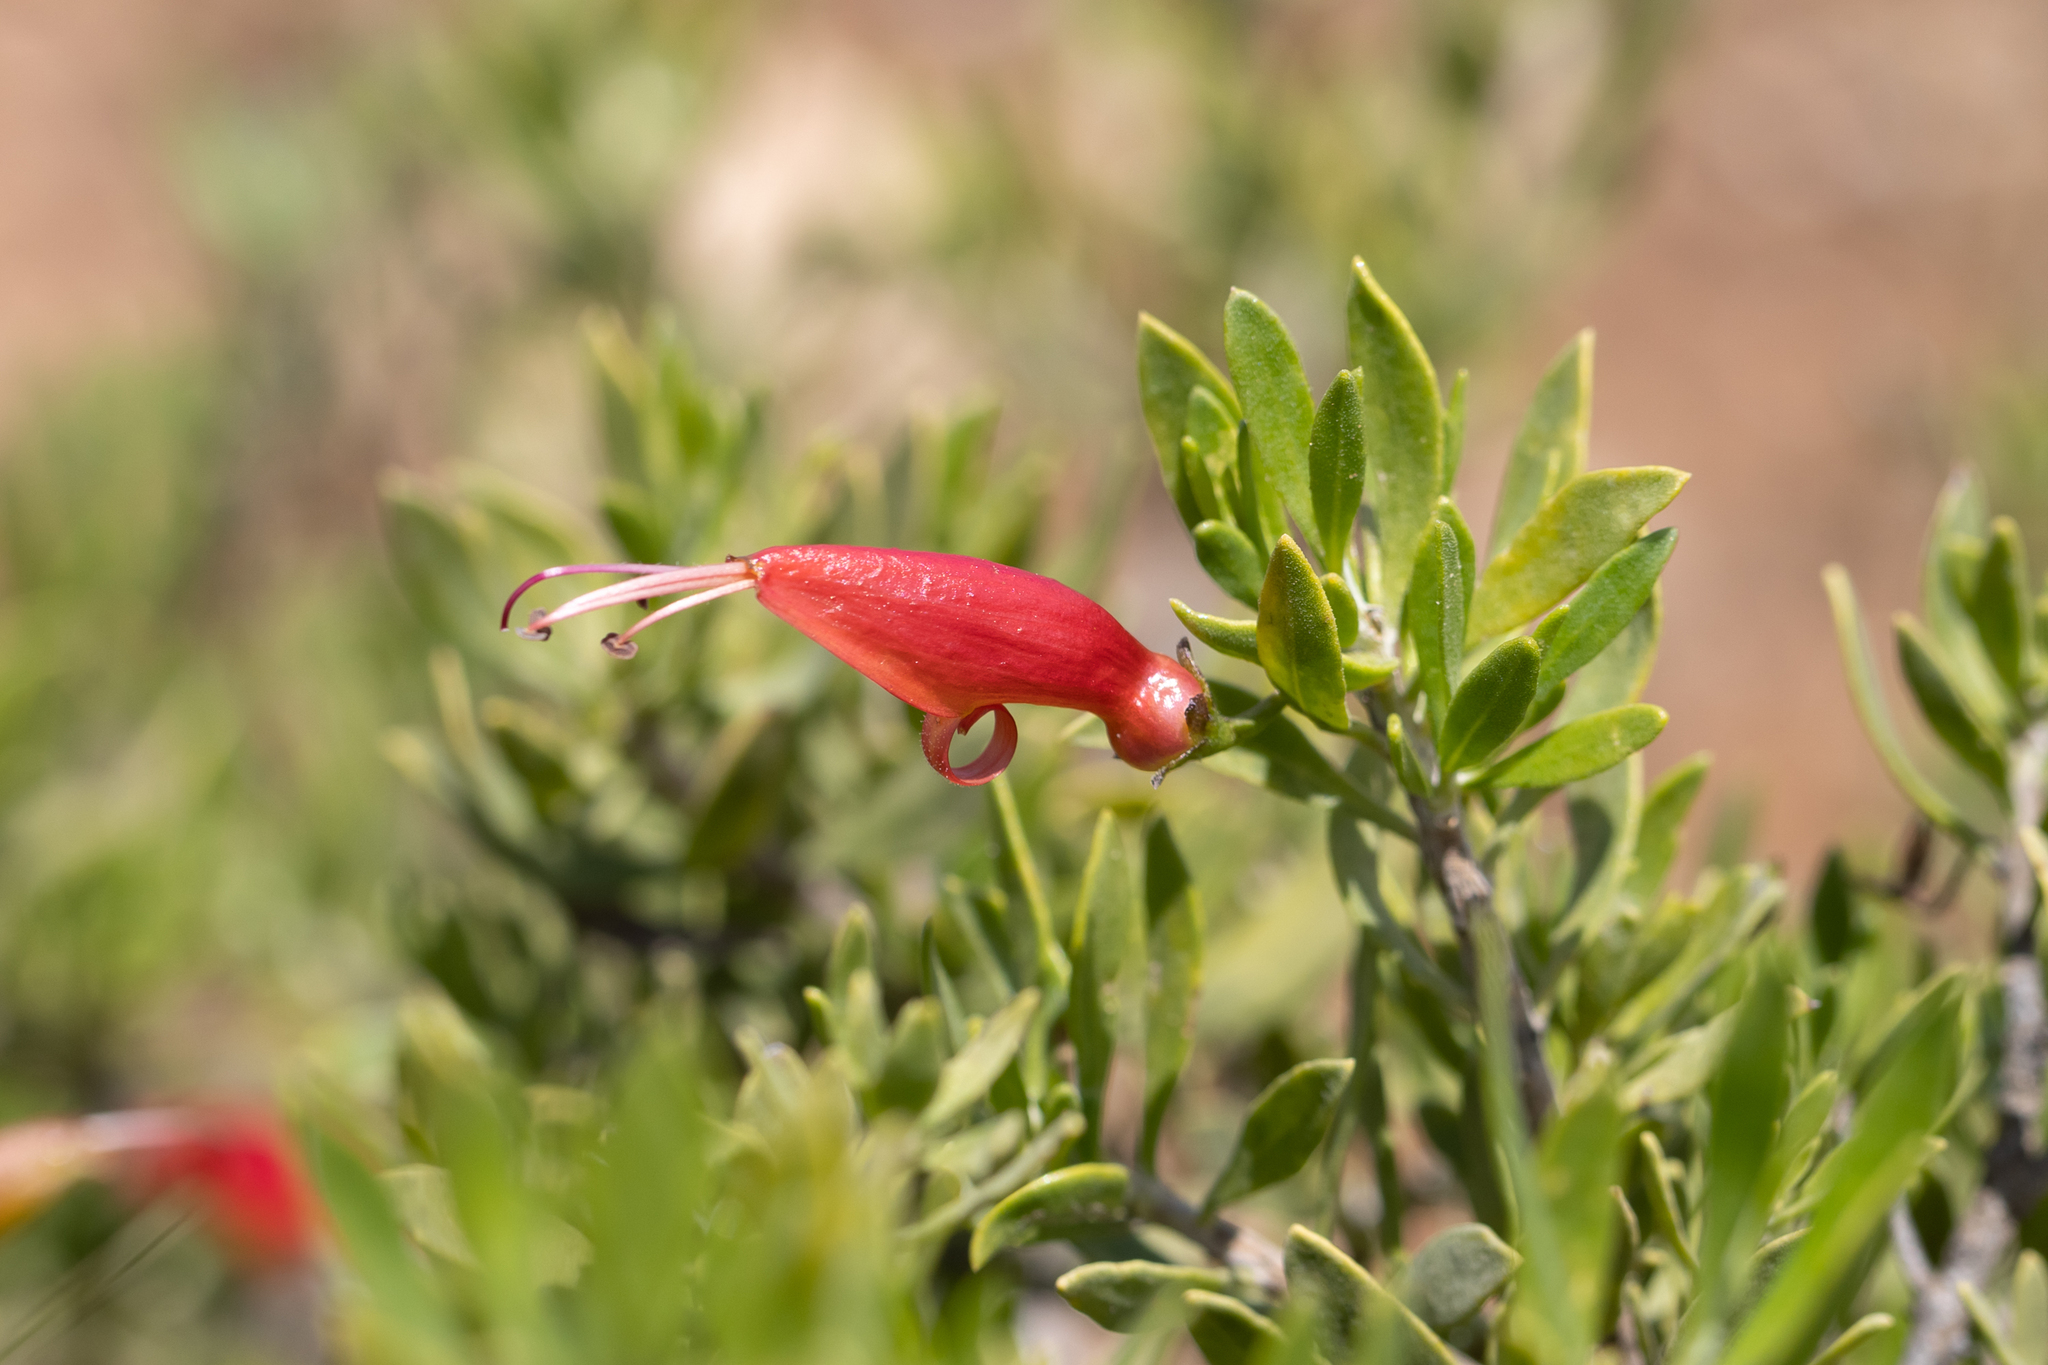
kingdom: Plantae
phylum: Tracheophyta
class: Magnoliopsida
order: Lamiales
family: Scrophulariaceae
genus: Eremophila
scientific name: Eremophila decipiens
